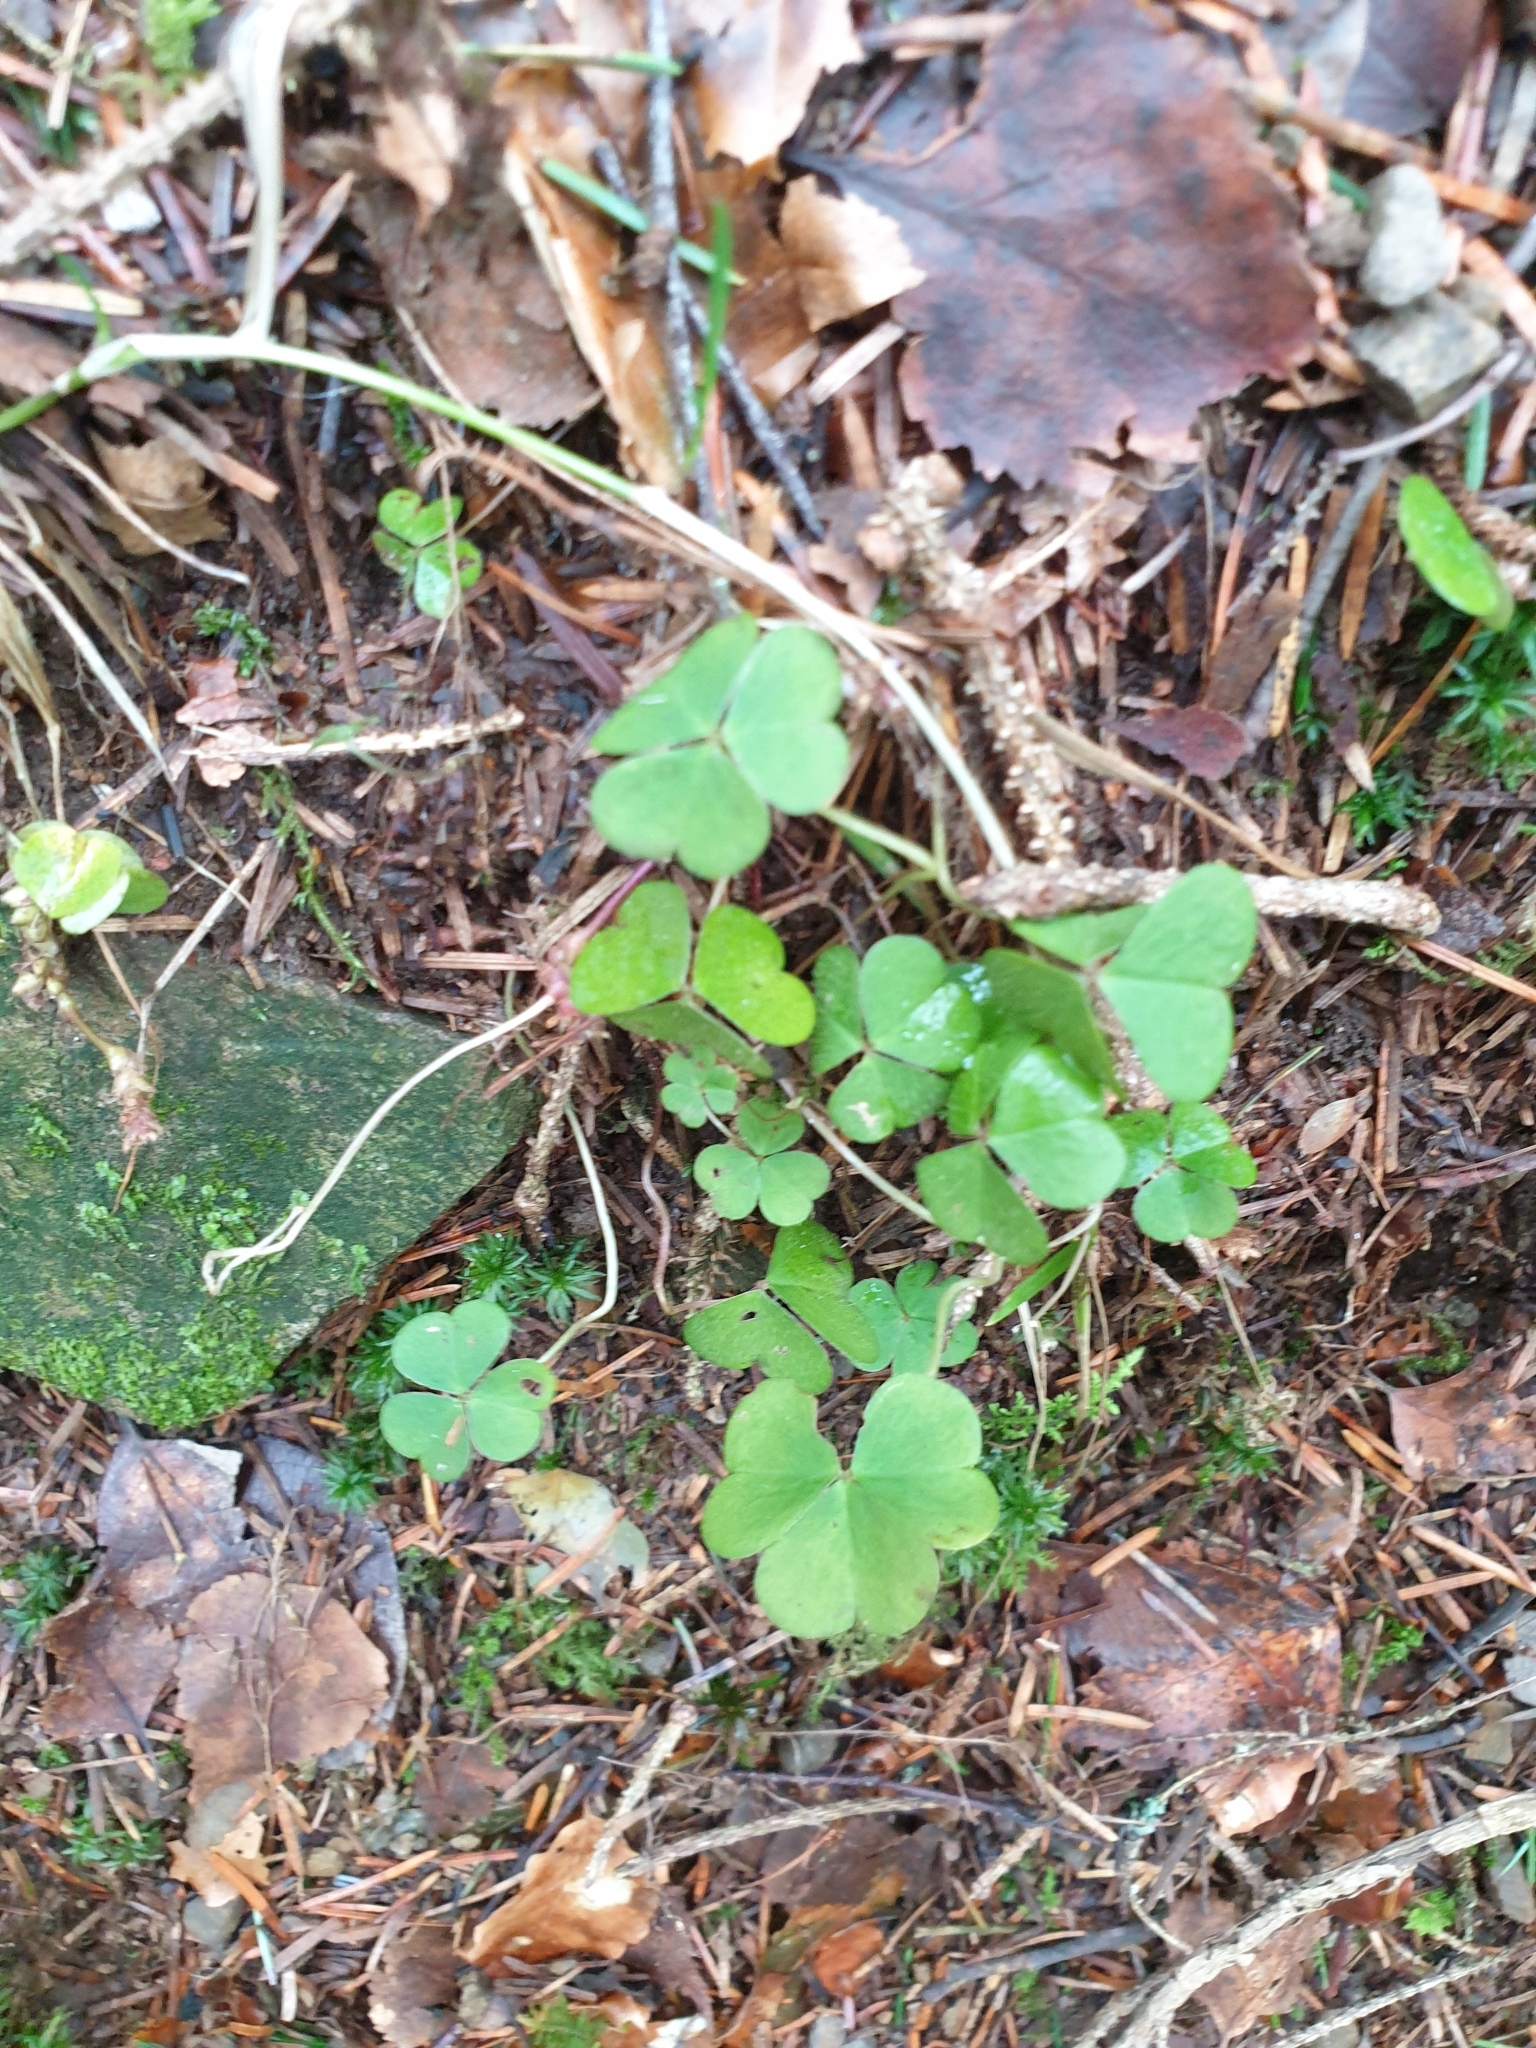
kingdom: Plantae
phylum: Tracheophyta
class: Magnoliopsida
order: Oxalidales
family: Oxalidaceae
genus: Oxalis
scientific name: Oxalis acetosella
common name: Wood-sorrel
